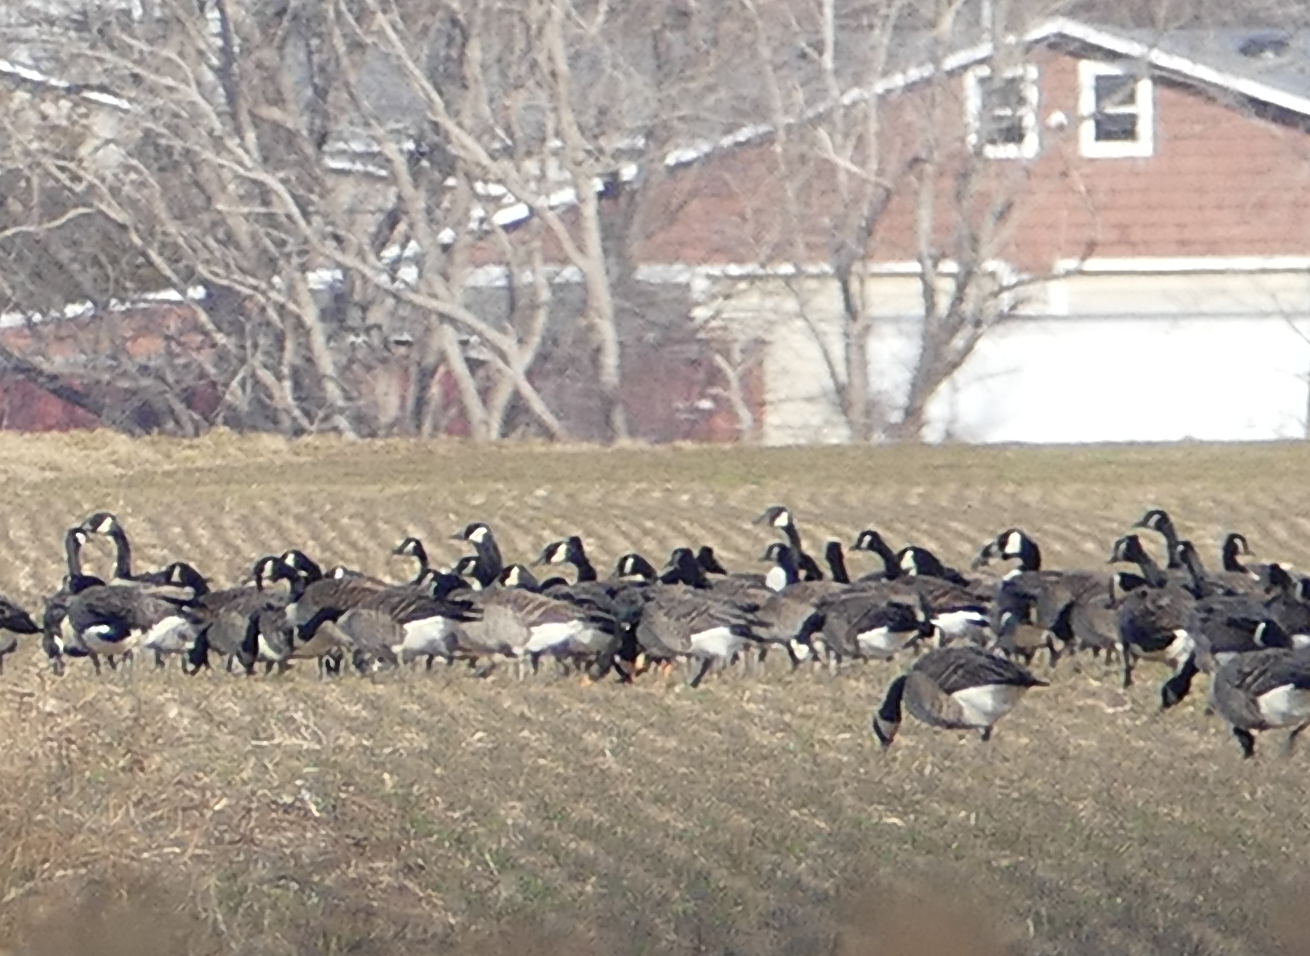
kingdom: Animalia
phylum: Chordata
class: Aves
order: Anseriformes
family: Anatidae
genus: Branta
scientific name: Branta canadensis
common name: Canada goose
